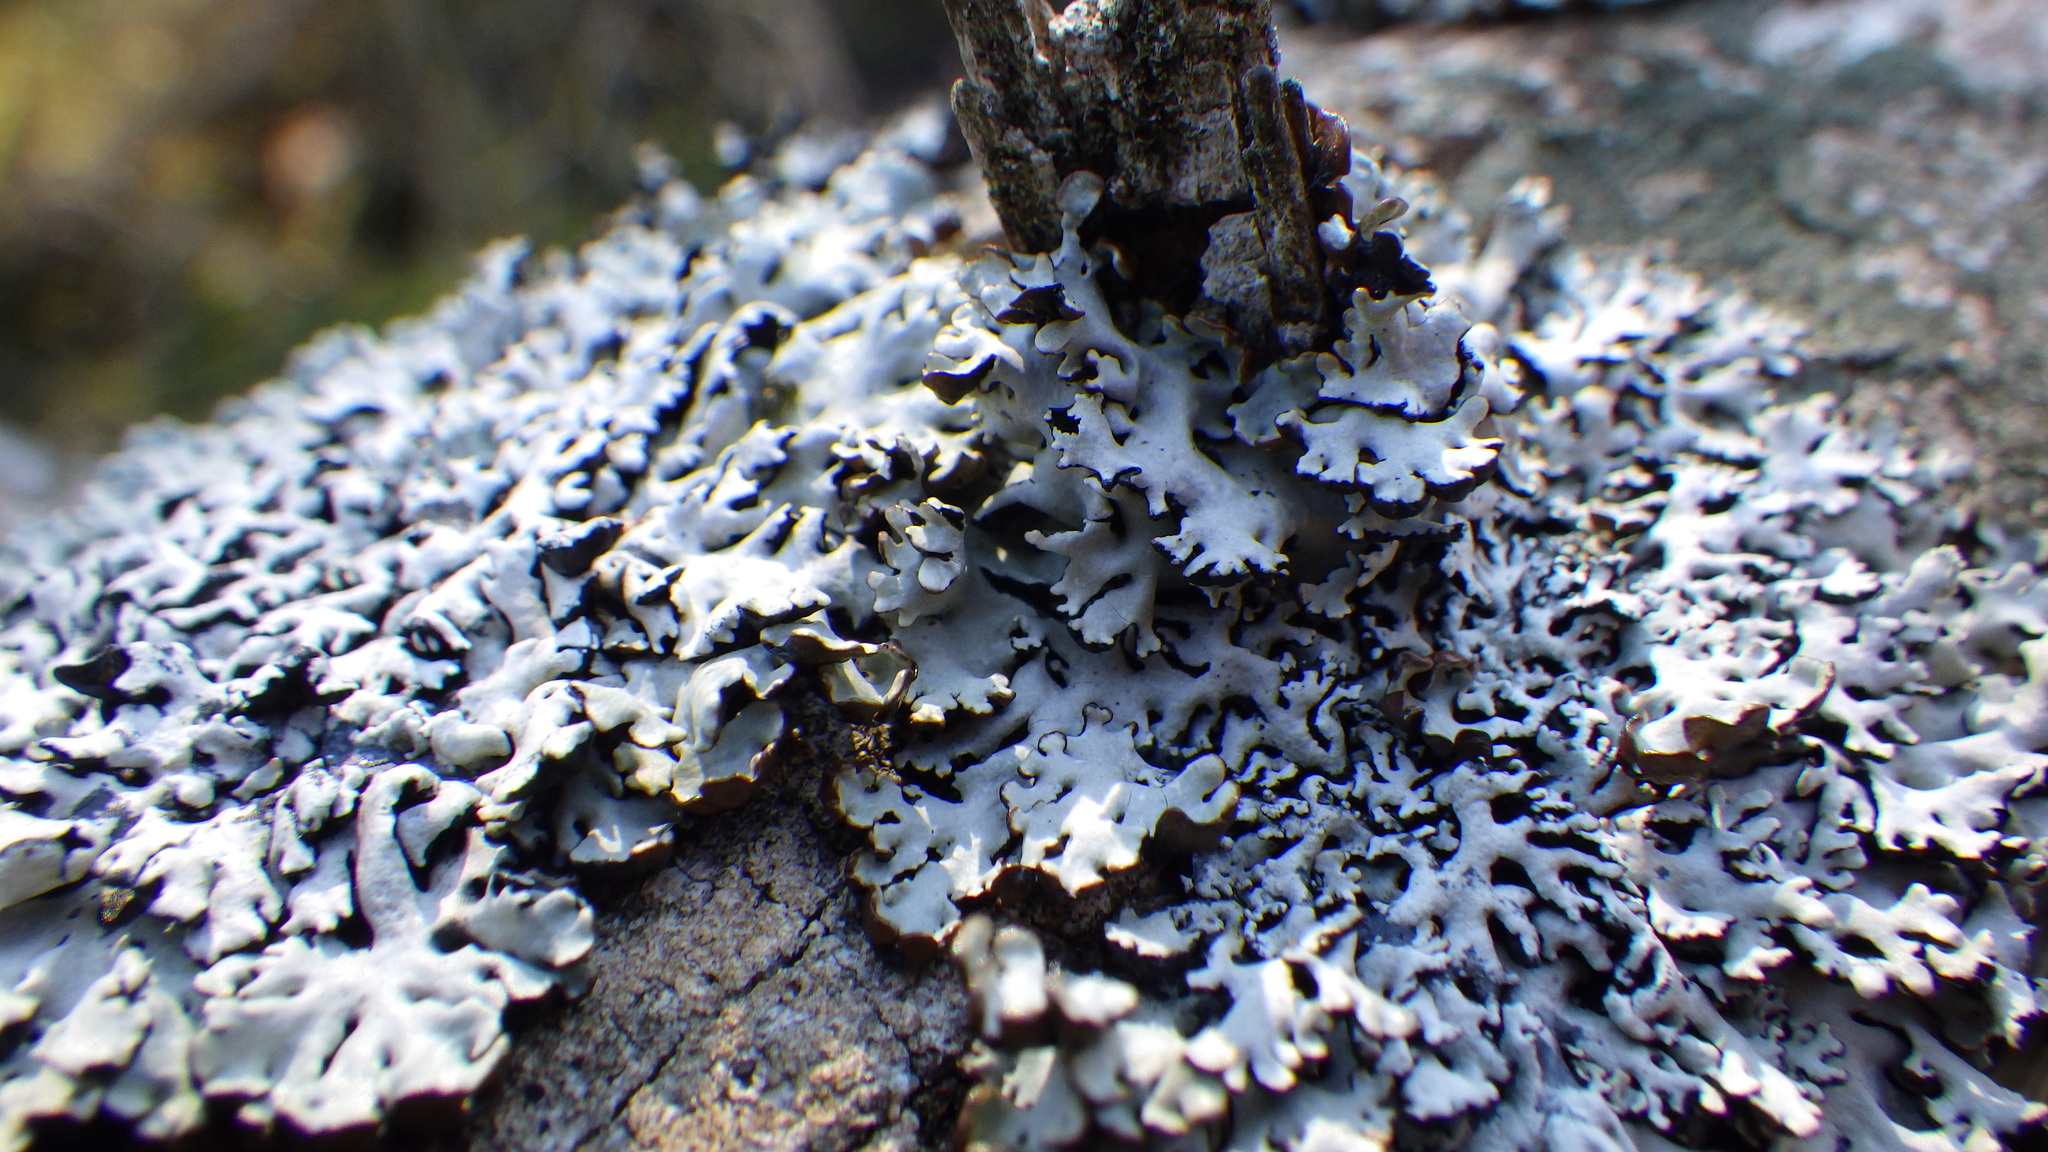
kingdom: Fungi
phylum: Ascomycota
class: Lecanoromycetes
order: Lecanorales
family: Parmeliaceae
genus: Hypogymnia
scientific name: Hypogymnia physodes
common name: Dark crottle
